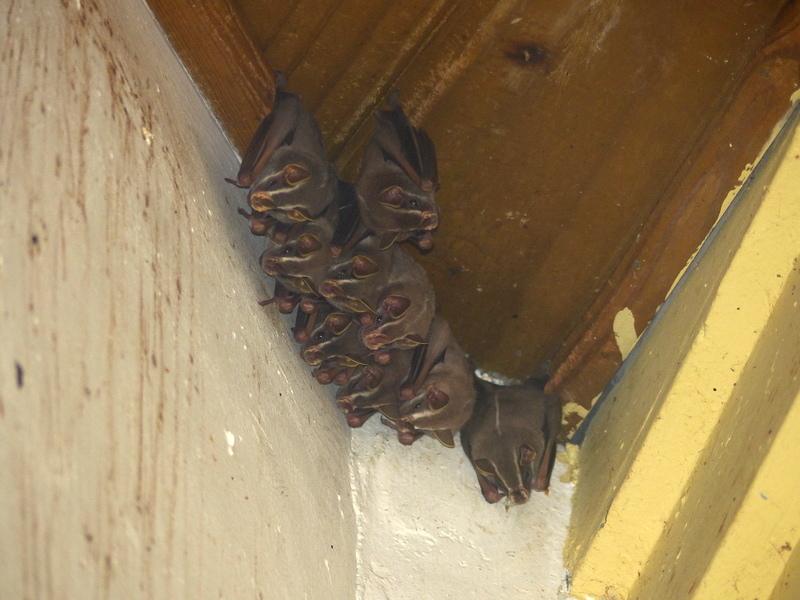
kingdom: Animalia
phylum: Chordata
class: Mammalia
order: Chiroptera
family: Phyllostomidae
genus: Uroderma
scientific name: Uroderma bilobatum
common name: Common tent-making bat
